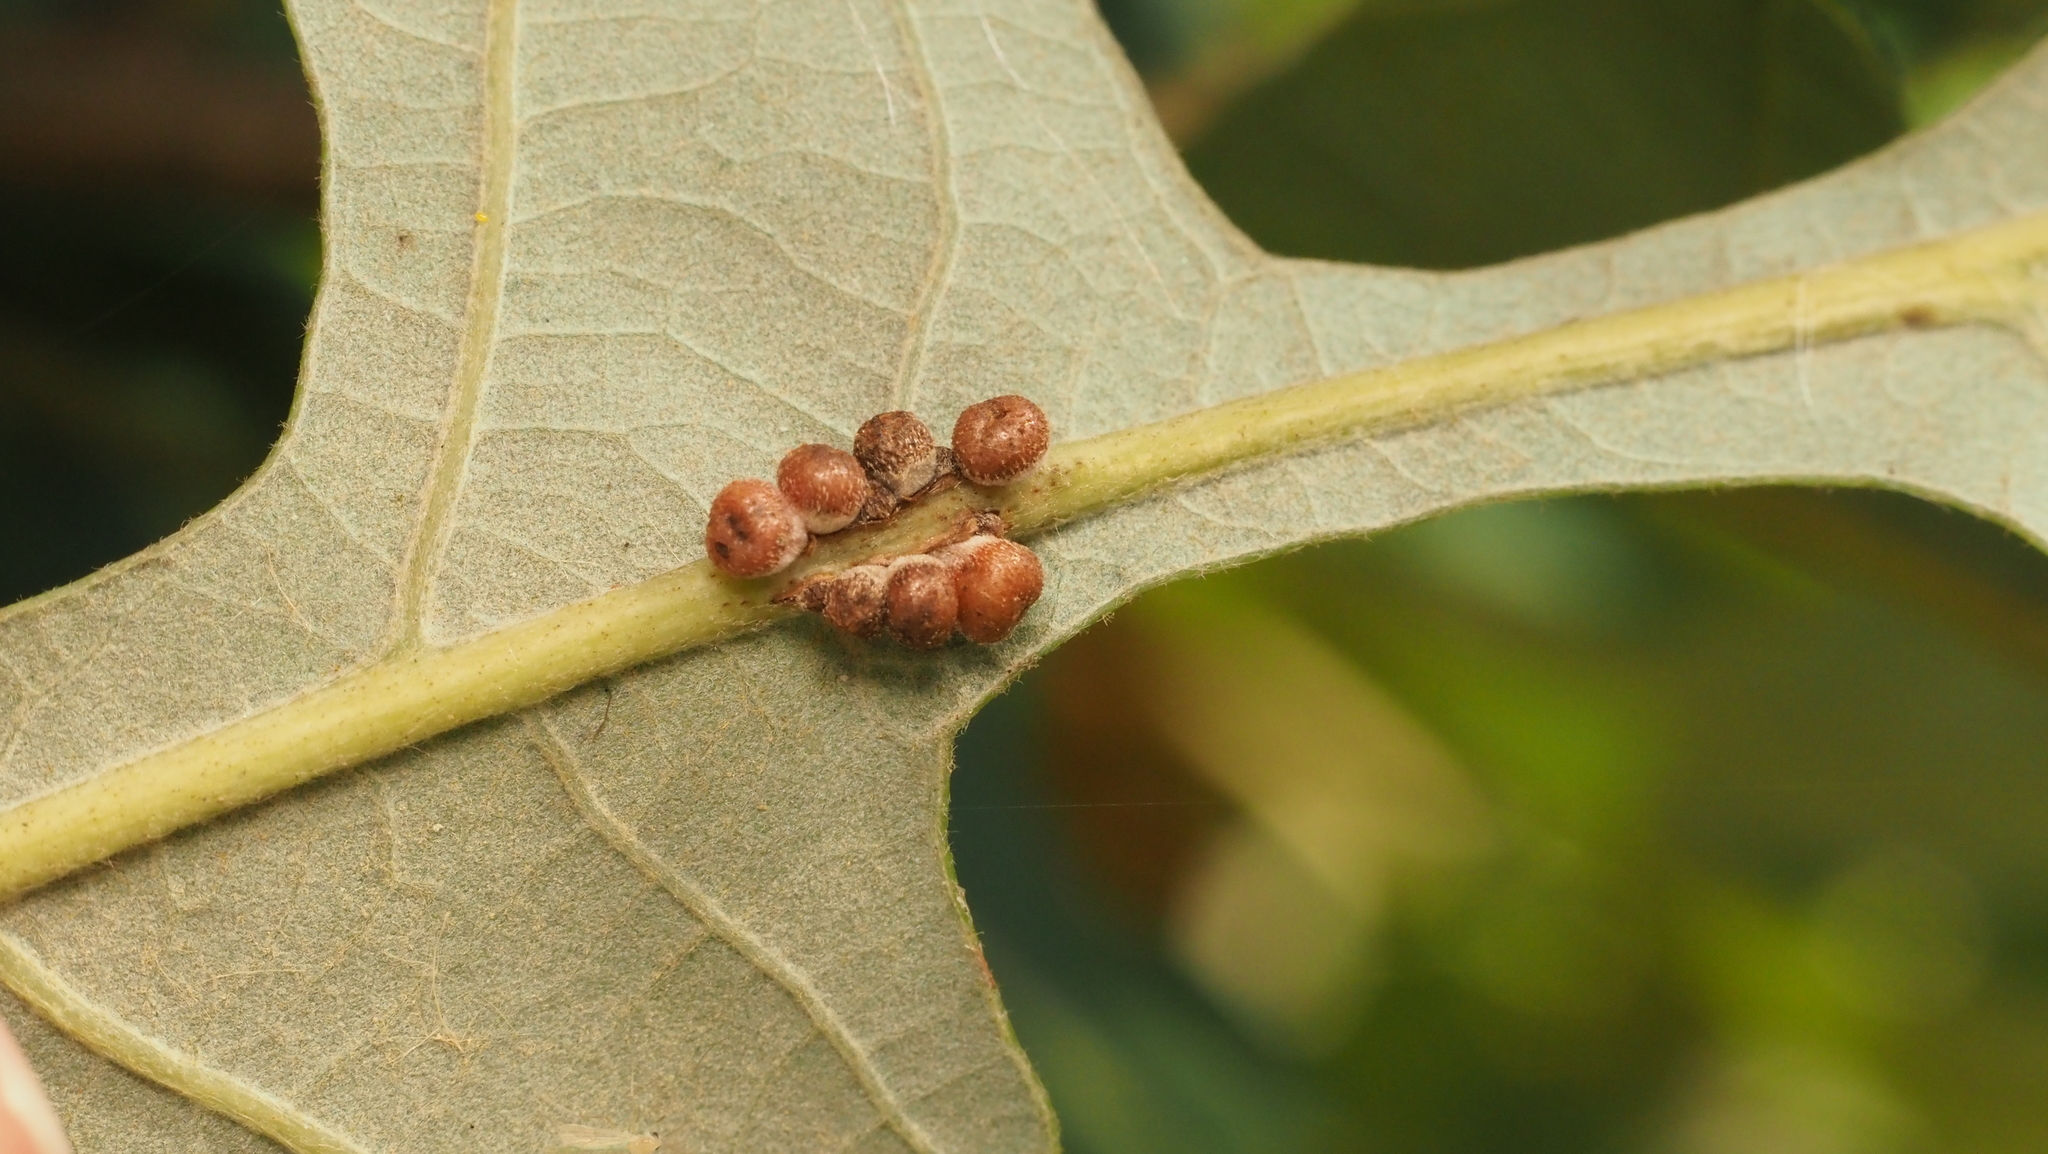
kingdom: Animalia
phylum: Arthropoda
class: Insecta
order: Hymenoptera
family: Cynipidae
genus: Andricus
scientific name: Andricus
